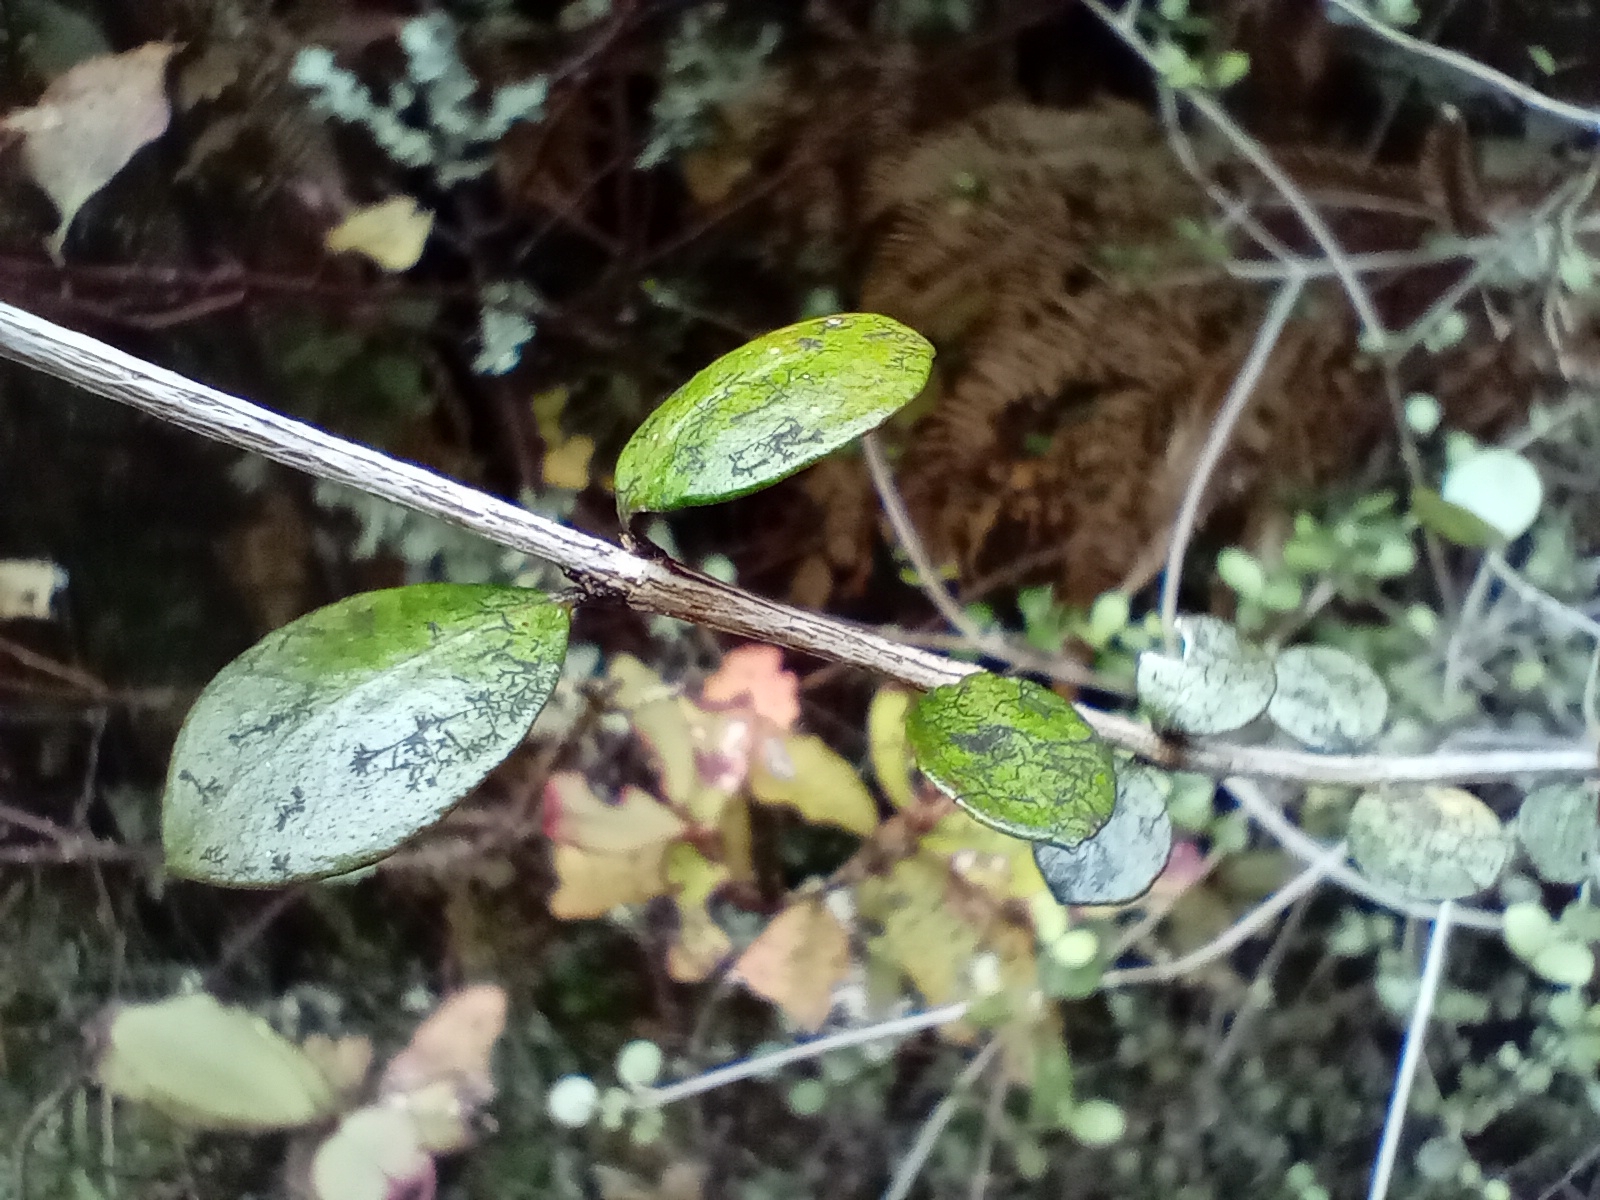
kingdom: Plantae
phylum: Tracheophyta
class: Magnoliopsida
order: Myrtales
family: Myrtaceae
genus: Neomyrtus
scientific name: Neomyrtus pedunculata
